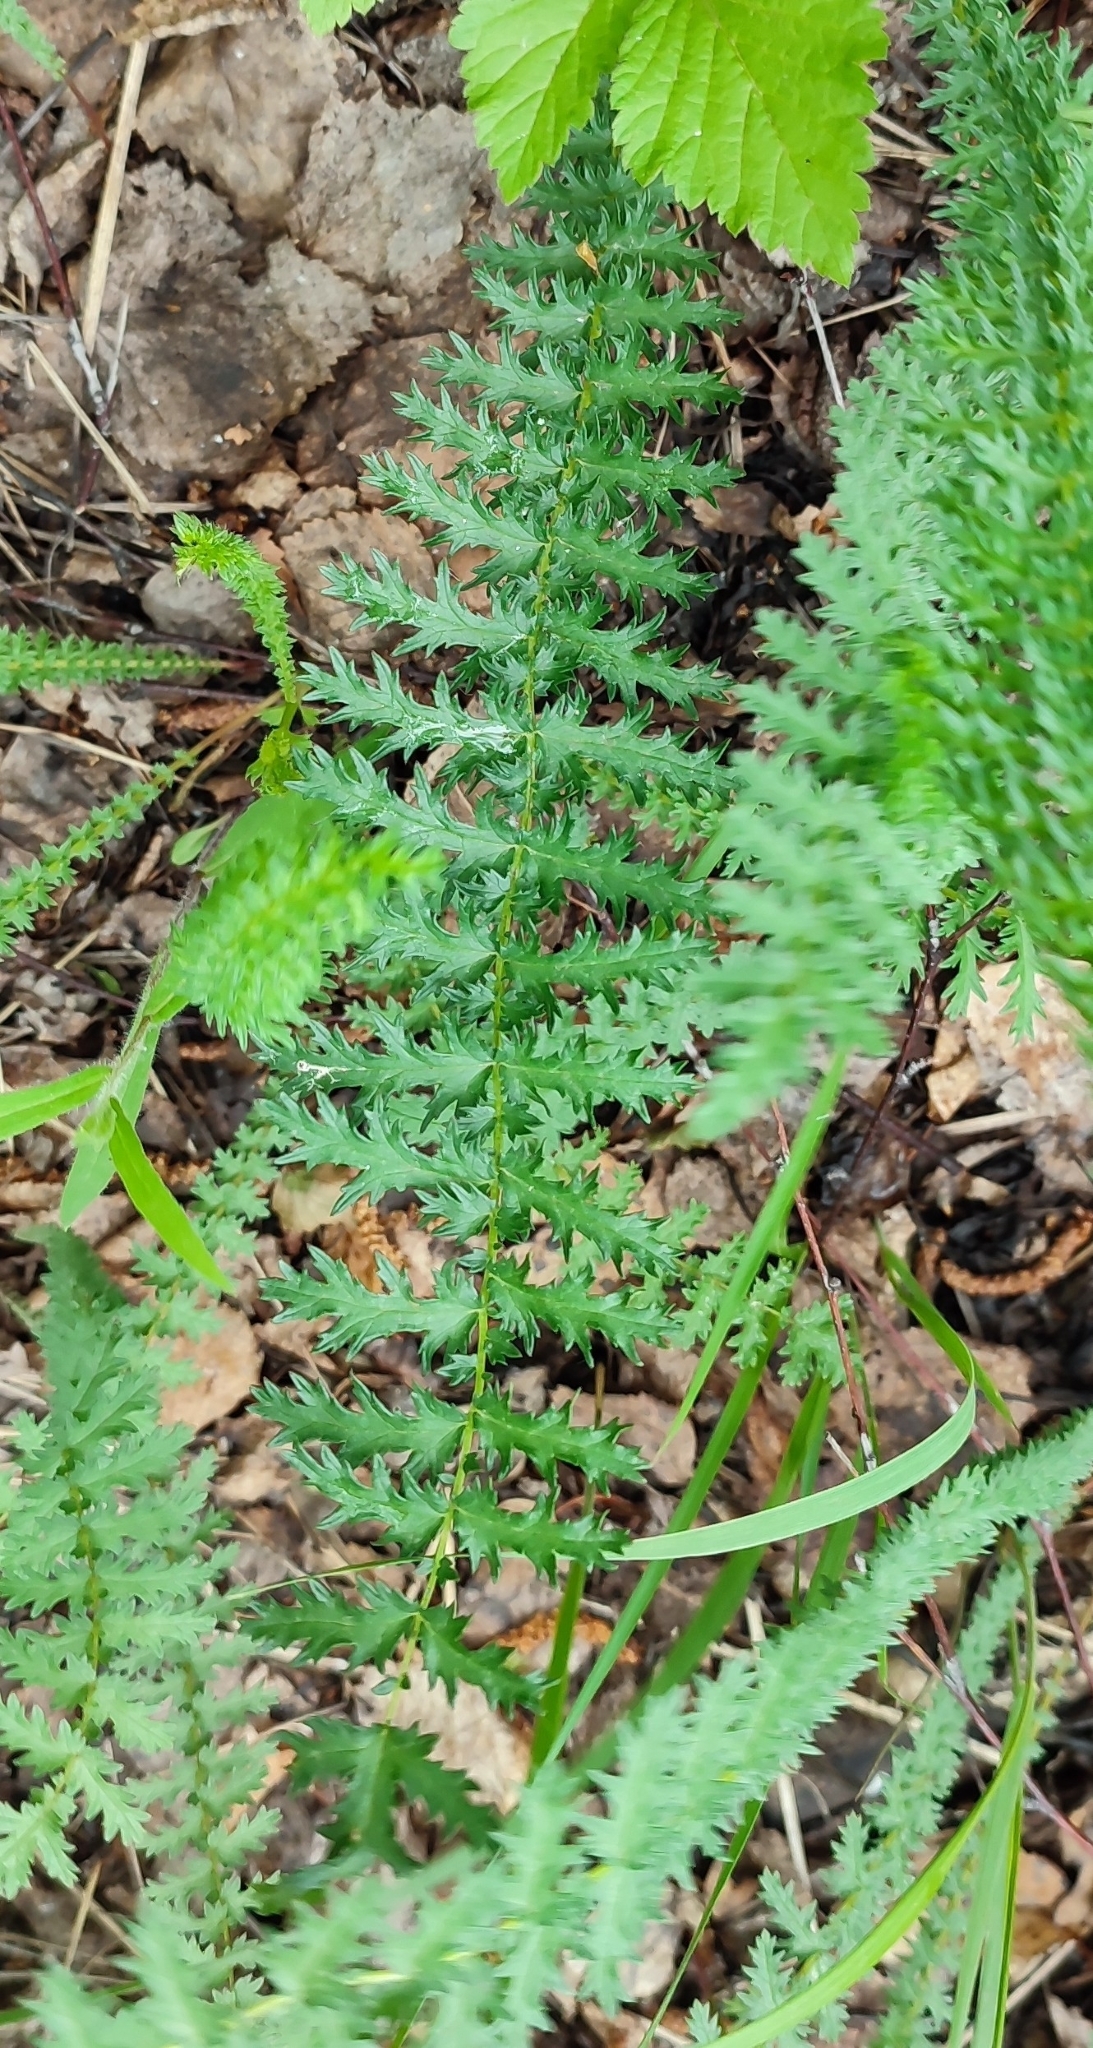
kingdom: Plantae
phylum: Tracheophyta
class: Magnoliopsida
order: Rosales
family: Rosaceae
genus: Filipendula
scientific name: Filipendula vulgaris
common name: Dropwort
